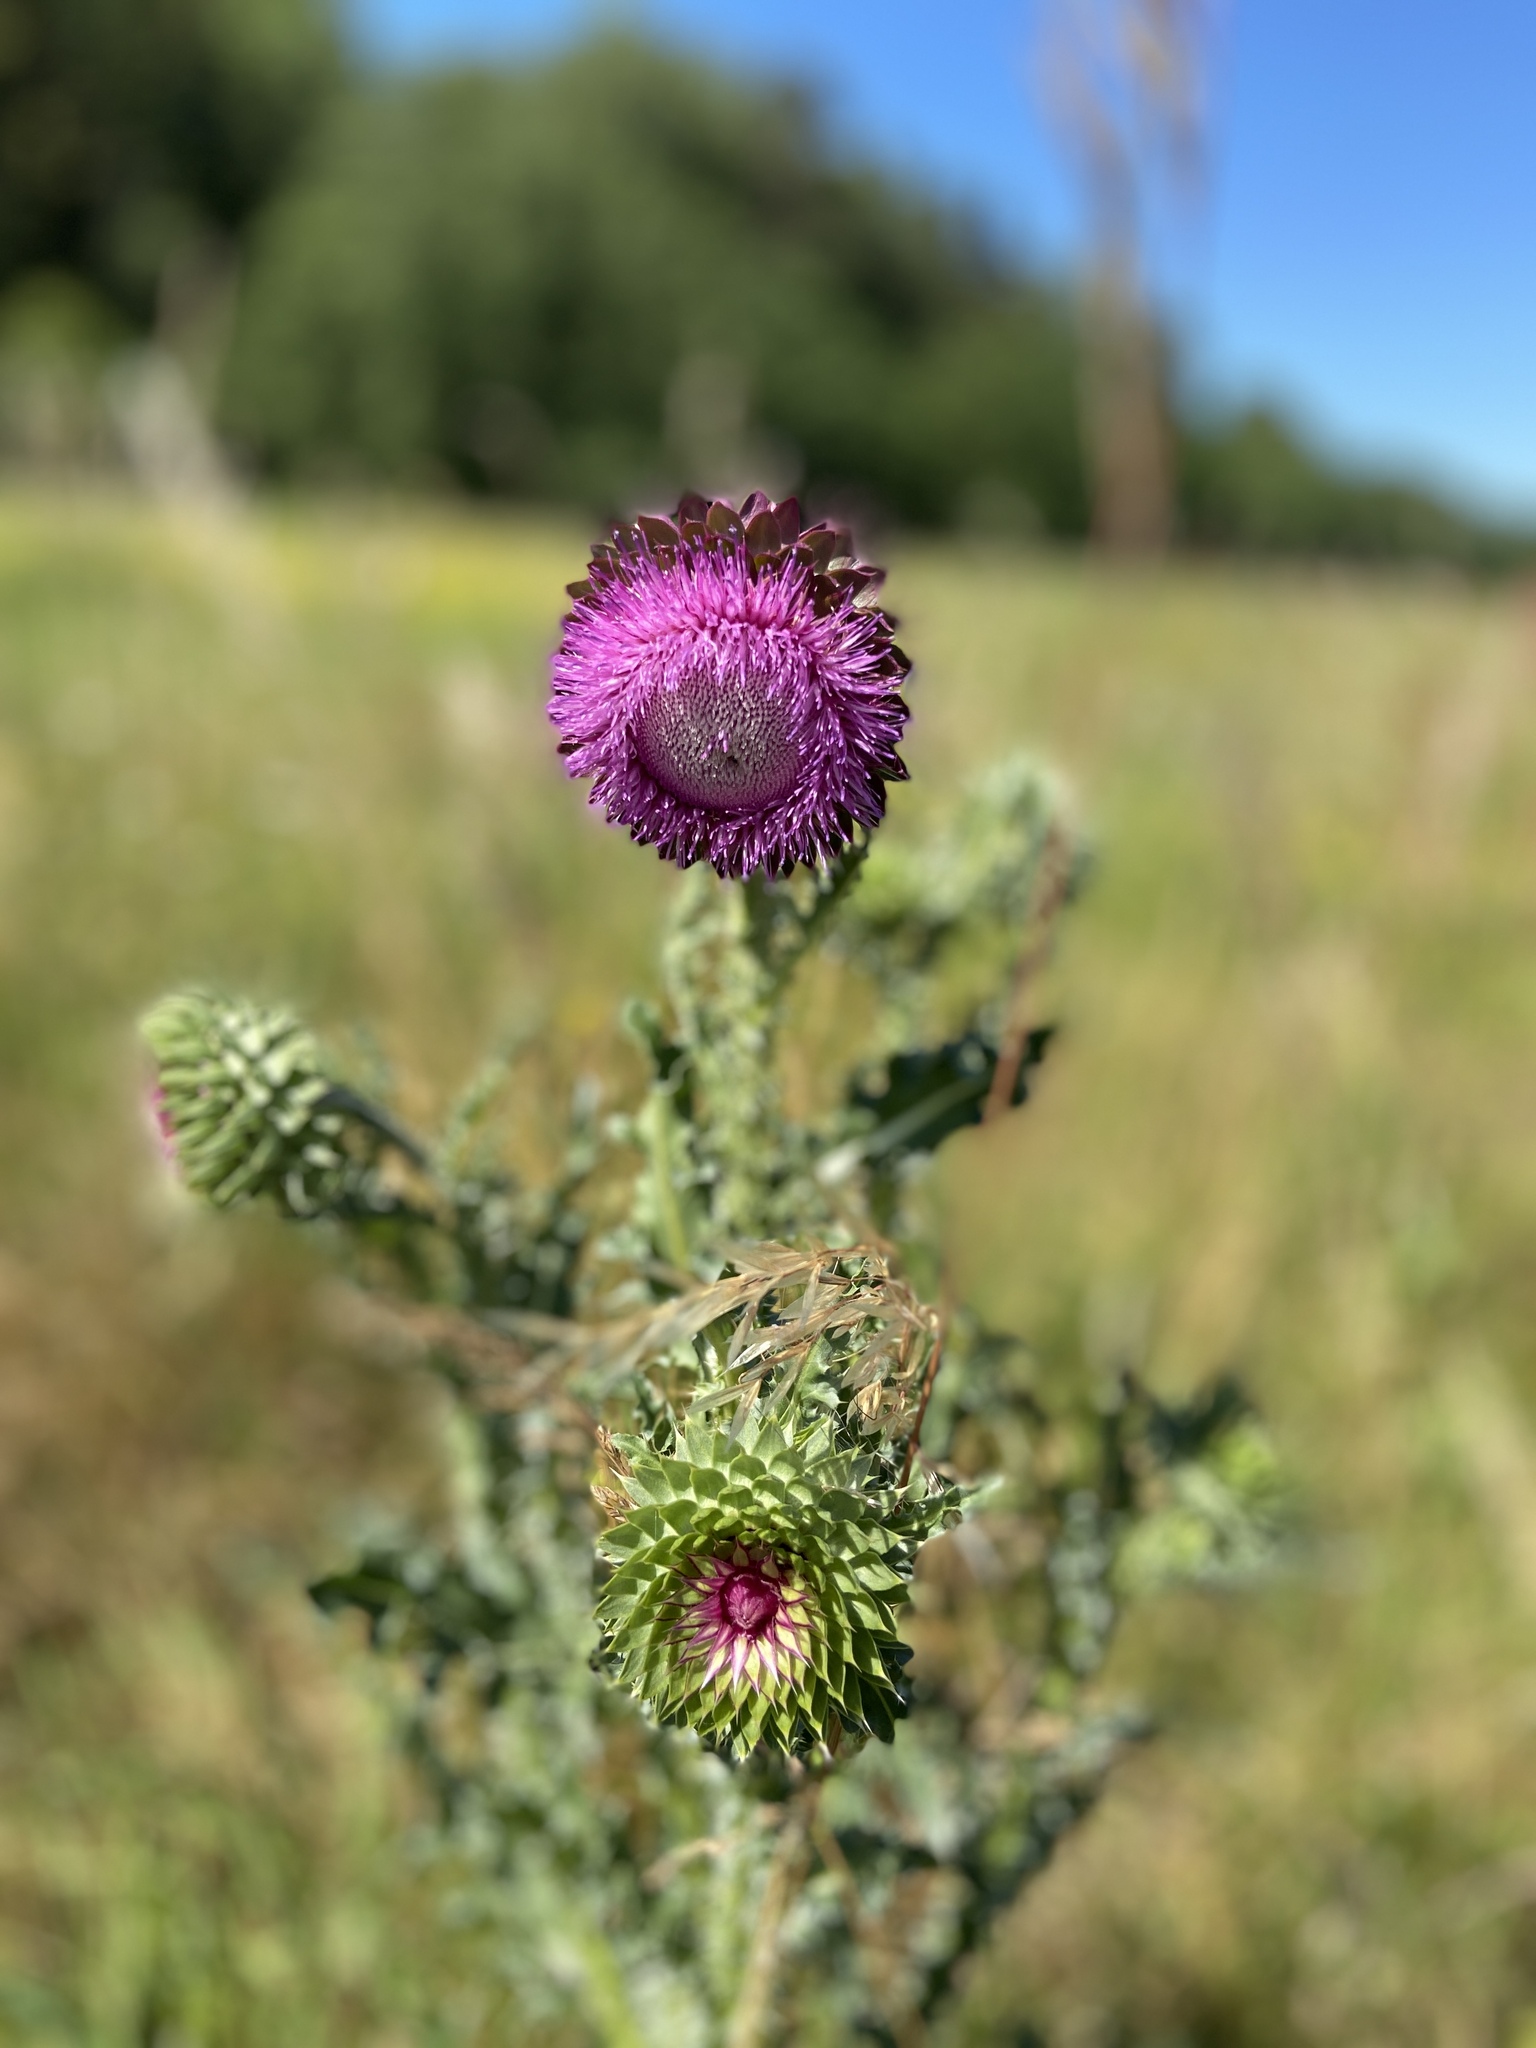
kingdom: Plantae
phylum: Tracheophyta
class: Magnoliopsida
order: Asterales
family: Asteraceae
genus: Carduus
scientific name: Carduus nutans
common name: Musk thistle
